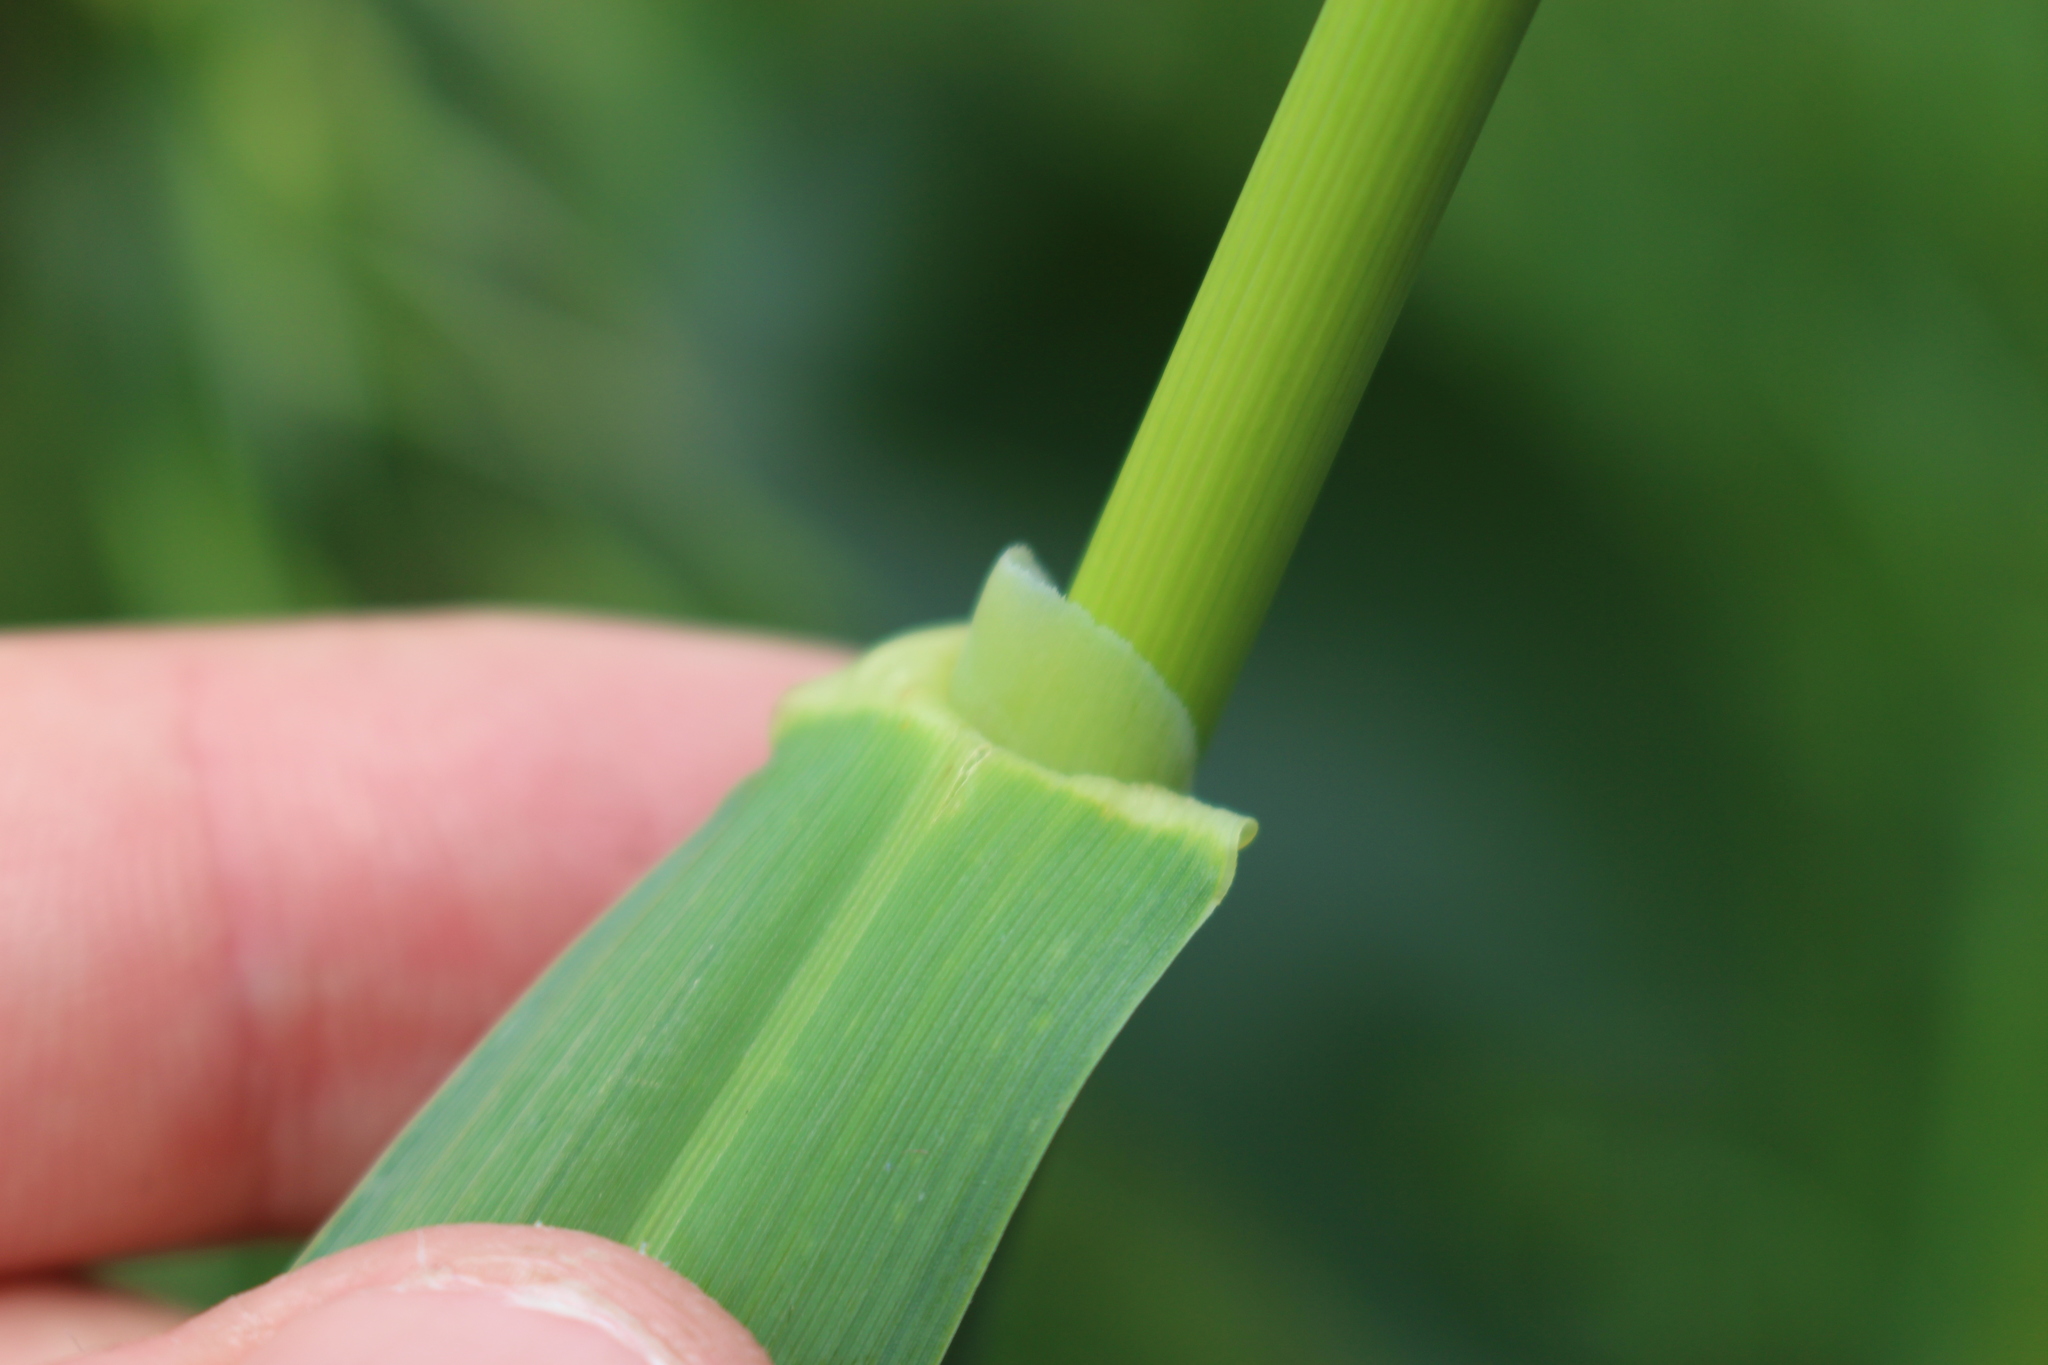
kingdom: Plantae
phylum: Tracheophyta
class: Liliopsida
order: Poales
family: Poaceae
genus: Avena
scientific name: Avena fatua
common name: Wild oat
